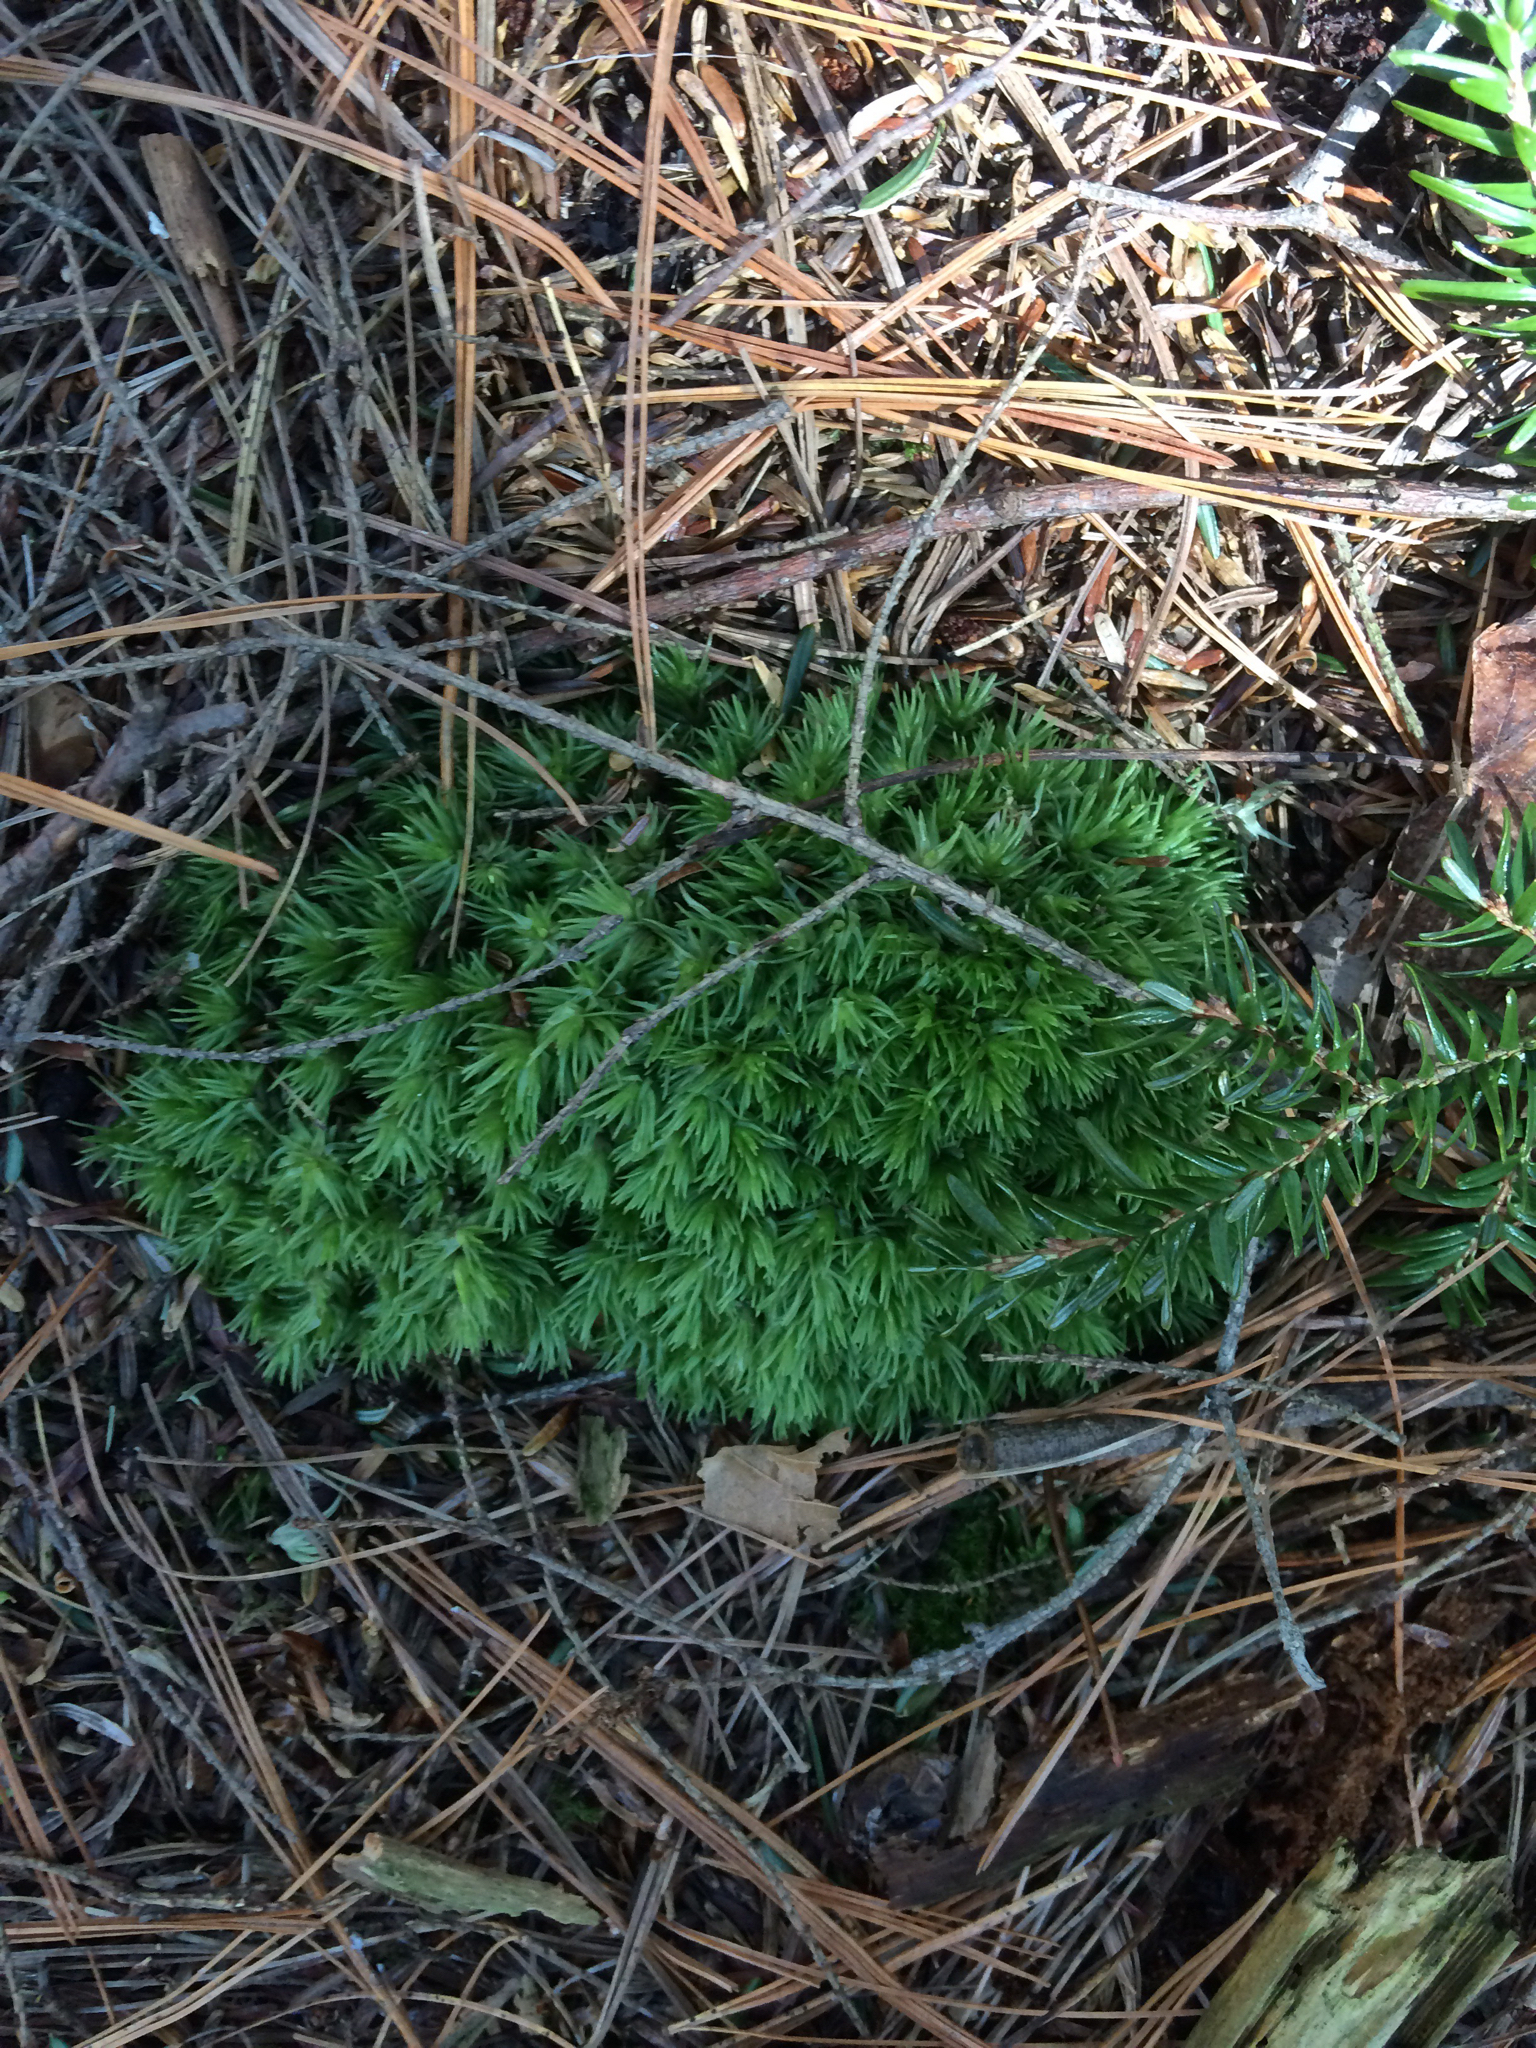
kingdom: Plantae
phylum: Bryophyta
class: Bryopsida
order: Dicranales
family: Leucobryaceae
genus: Leucobryum
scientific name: Leucobryum glaucum
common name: Large white-moss
